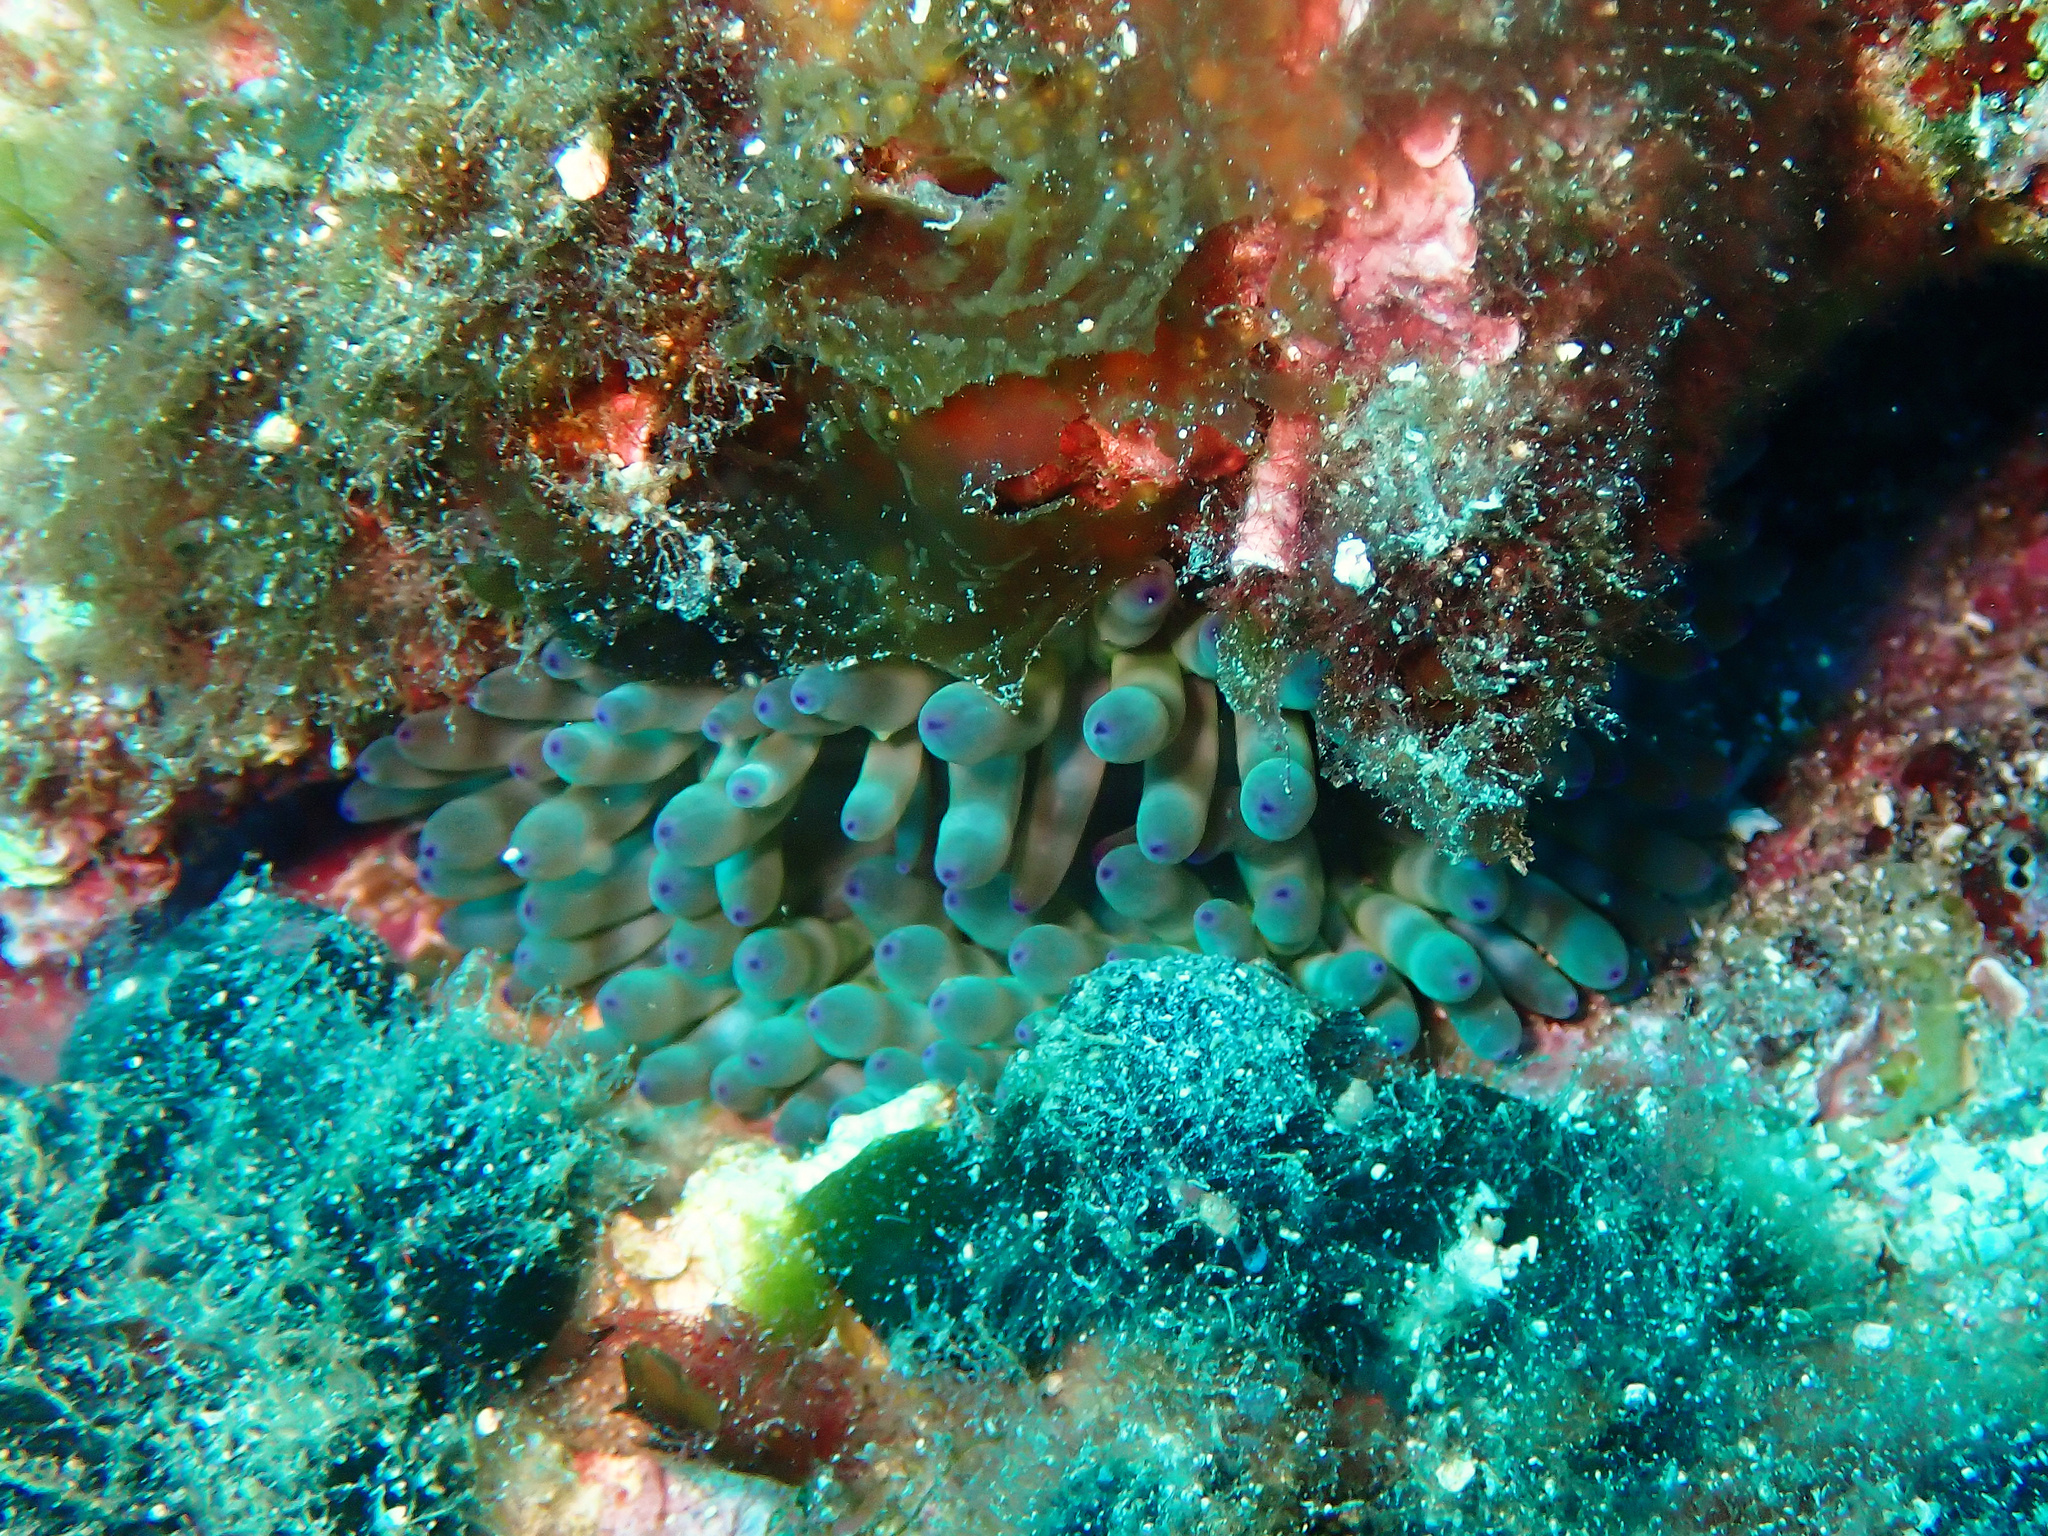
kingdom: Animalia
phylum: Cnidaria
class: Anthozoa
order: Actiniaria
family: Actiniidae
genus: Cribrinopsis
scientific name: Cribrinopsis crassa
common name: Fat anemone
